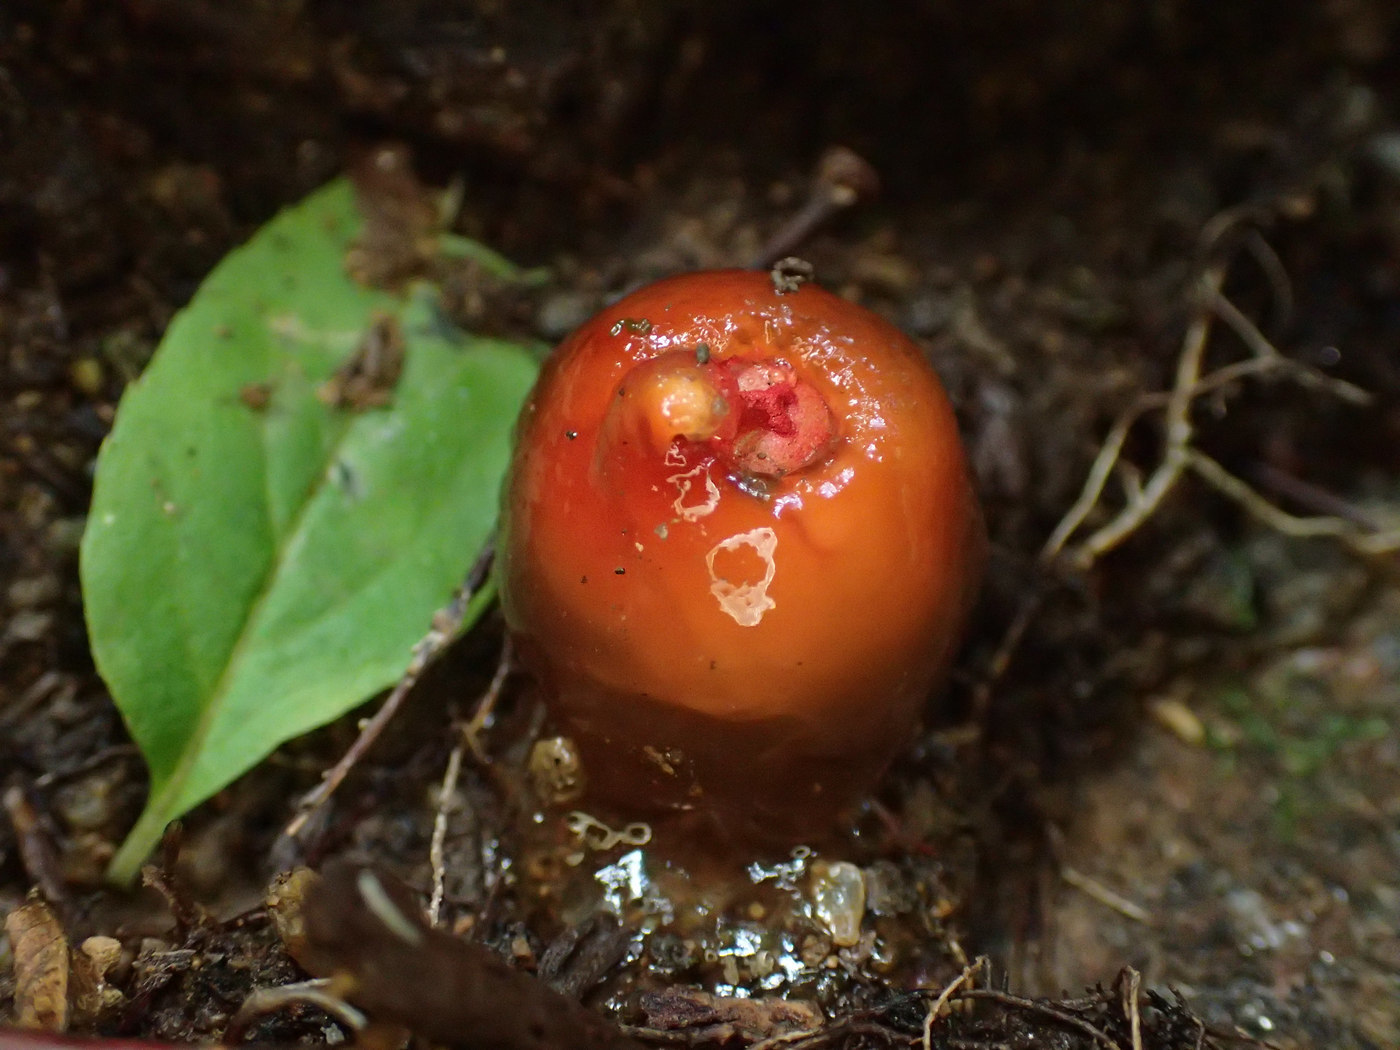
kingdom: Fungi
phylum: Basidiomycota
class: Agaricomycetes
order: Boletales
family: Calostomataceae
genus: Calostoma
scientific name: Calostoma cinnabarinum
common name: Stalked puffball-in-aspic
